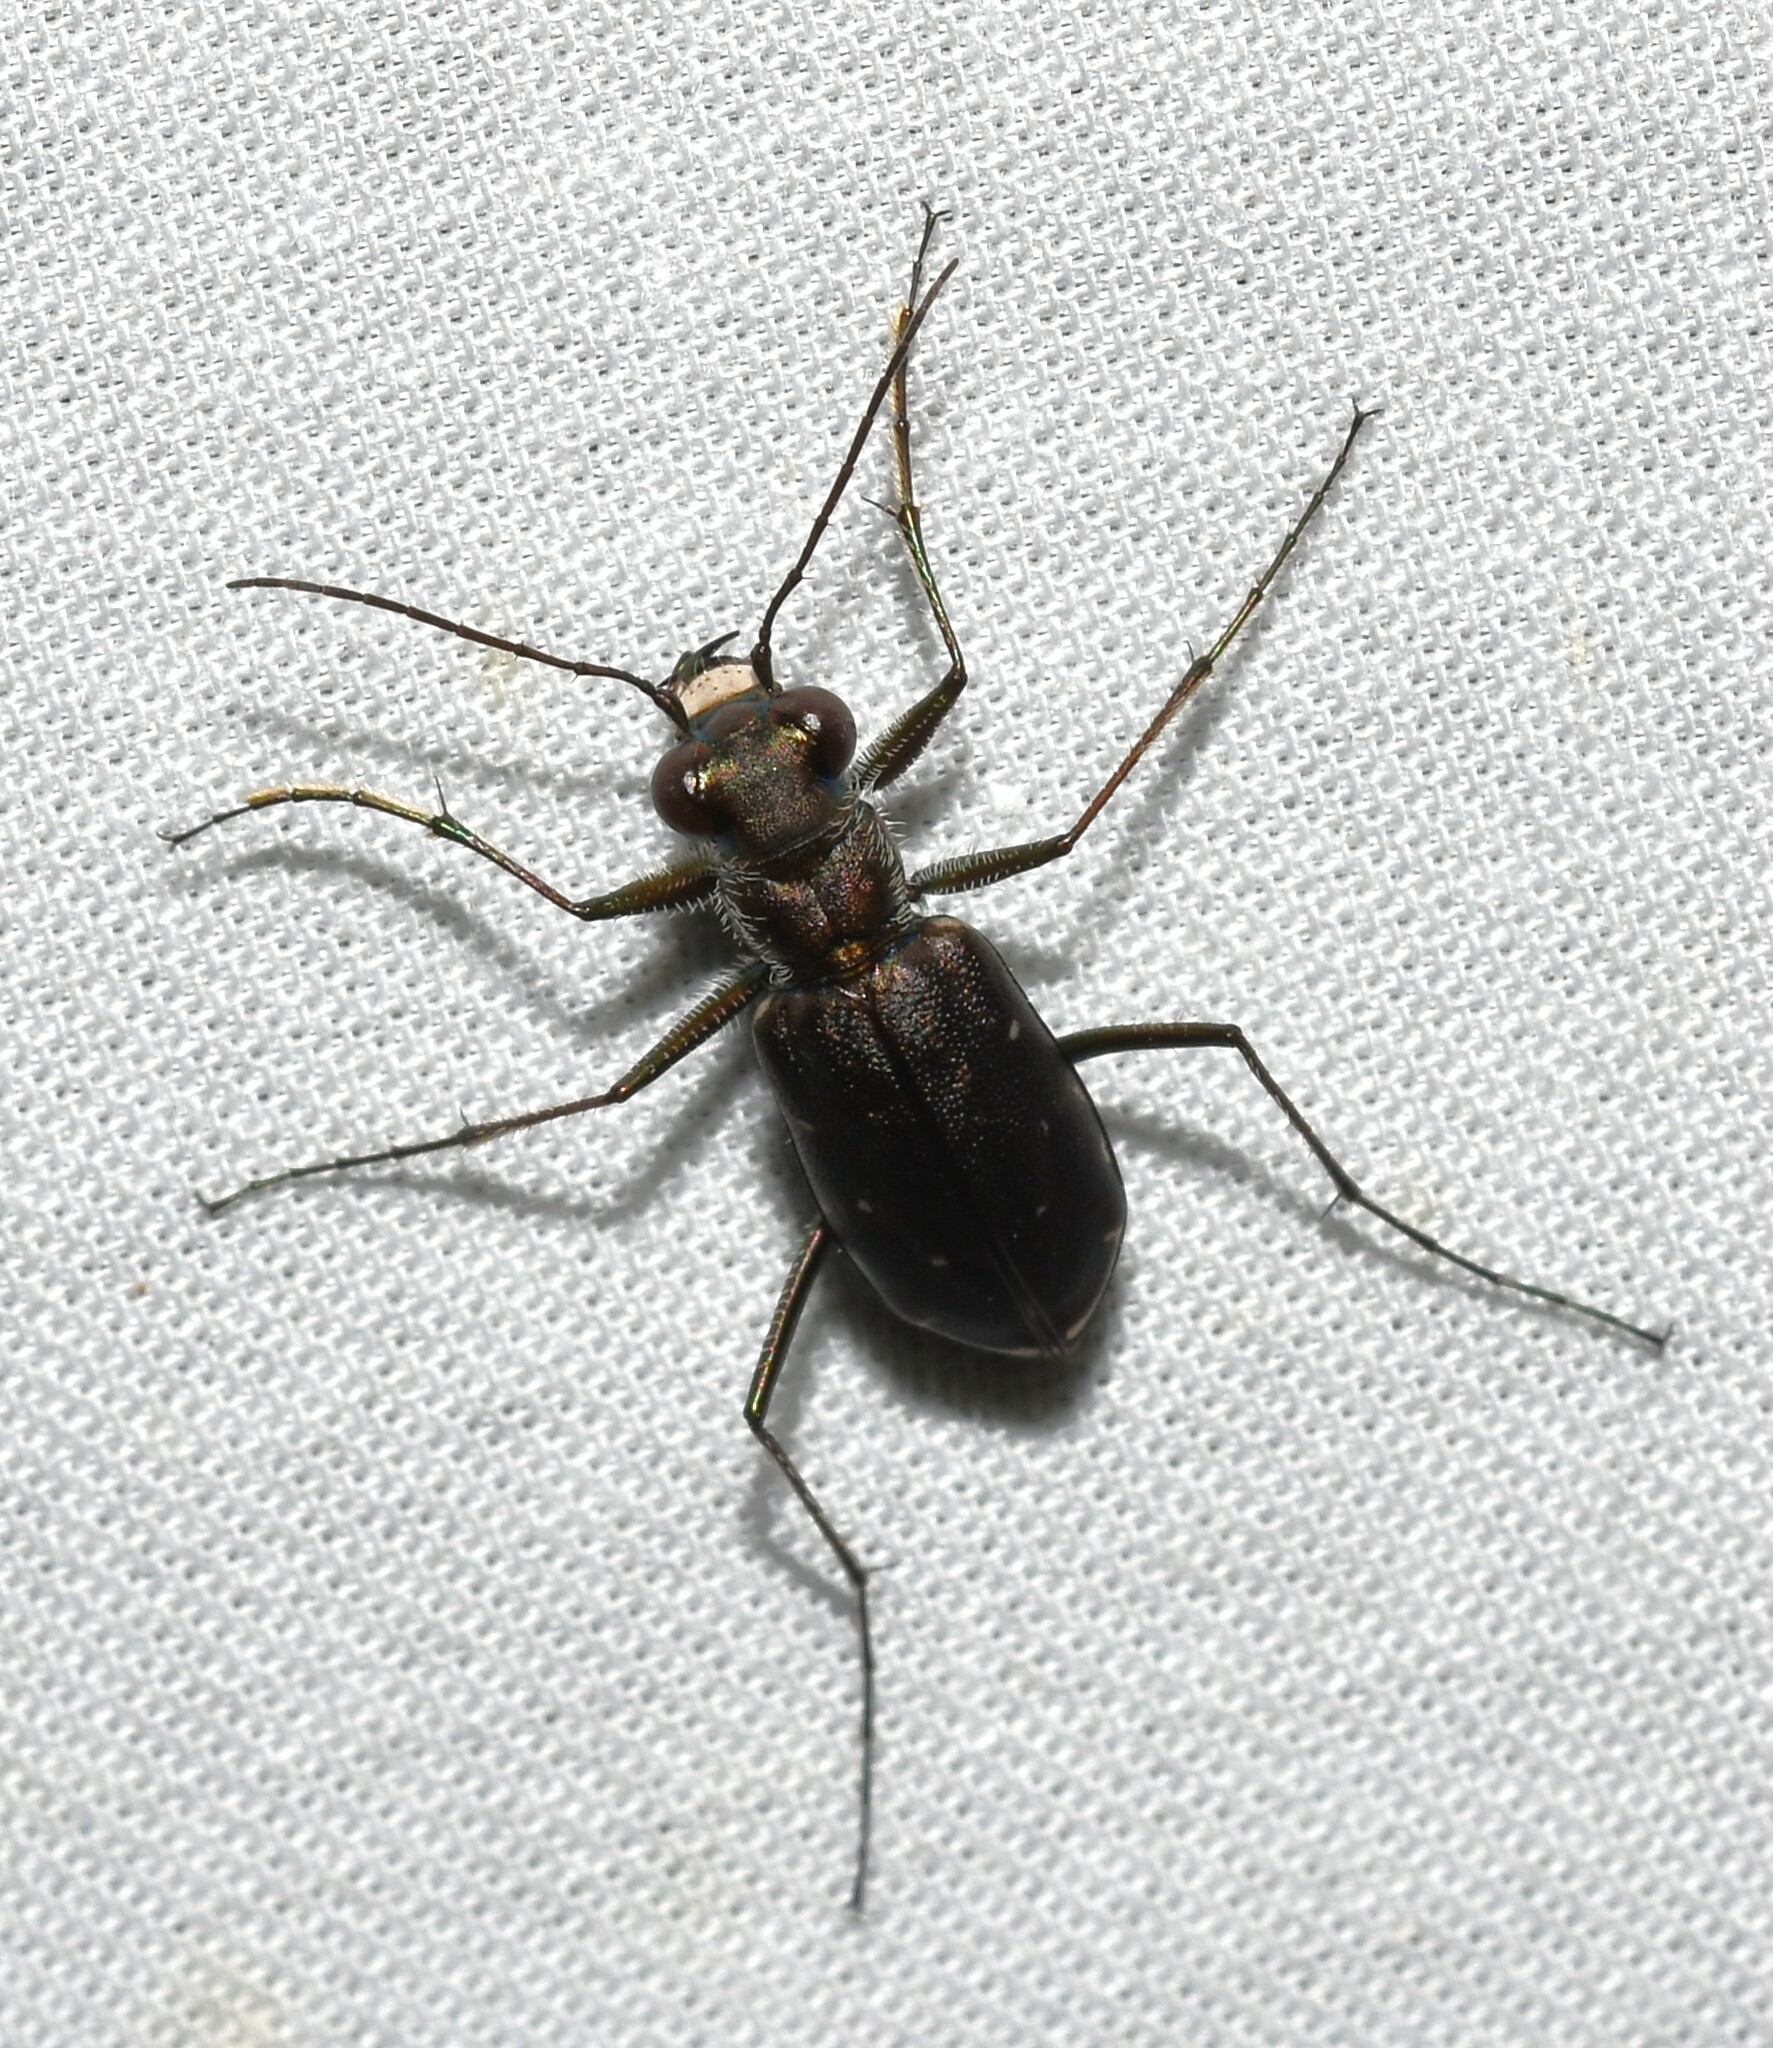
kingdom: Animalia
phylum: Arthropoda
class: Insecta
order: Coleoptera
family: Carabidae
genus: Cicindela
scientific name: Cicindela punctulata
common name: Punctured tiger beetle
